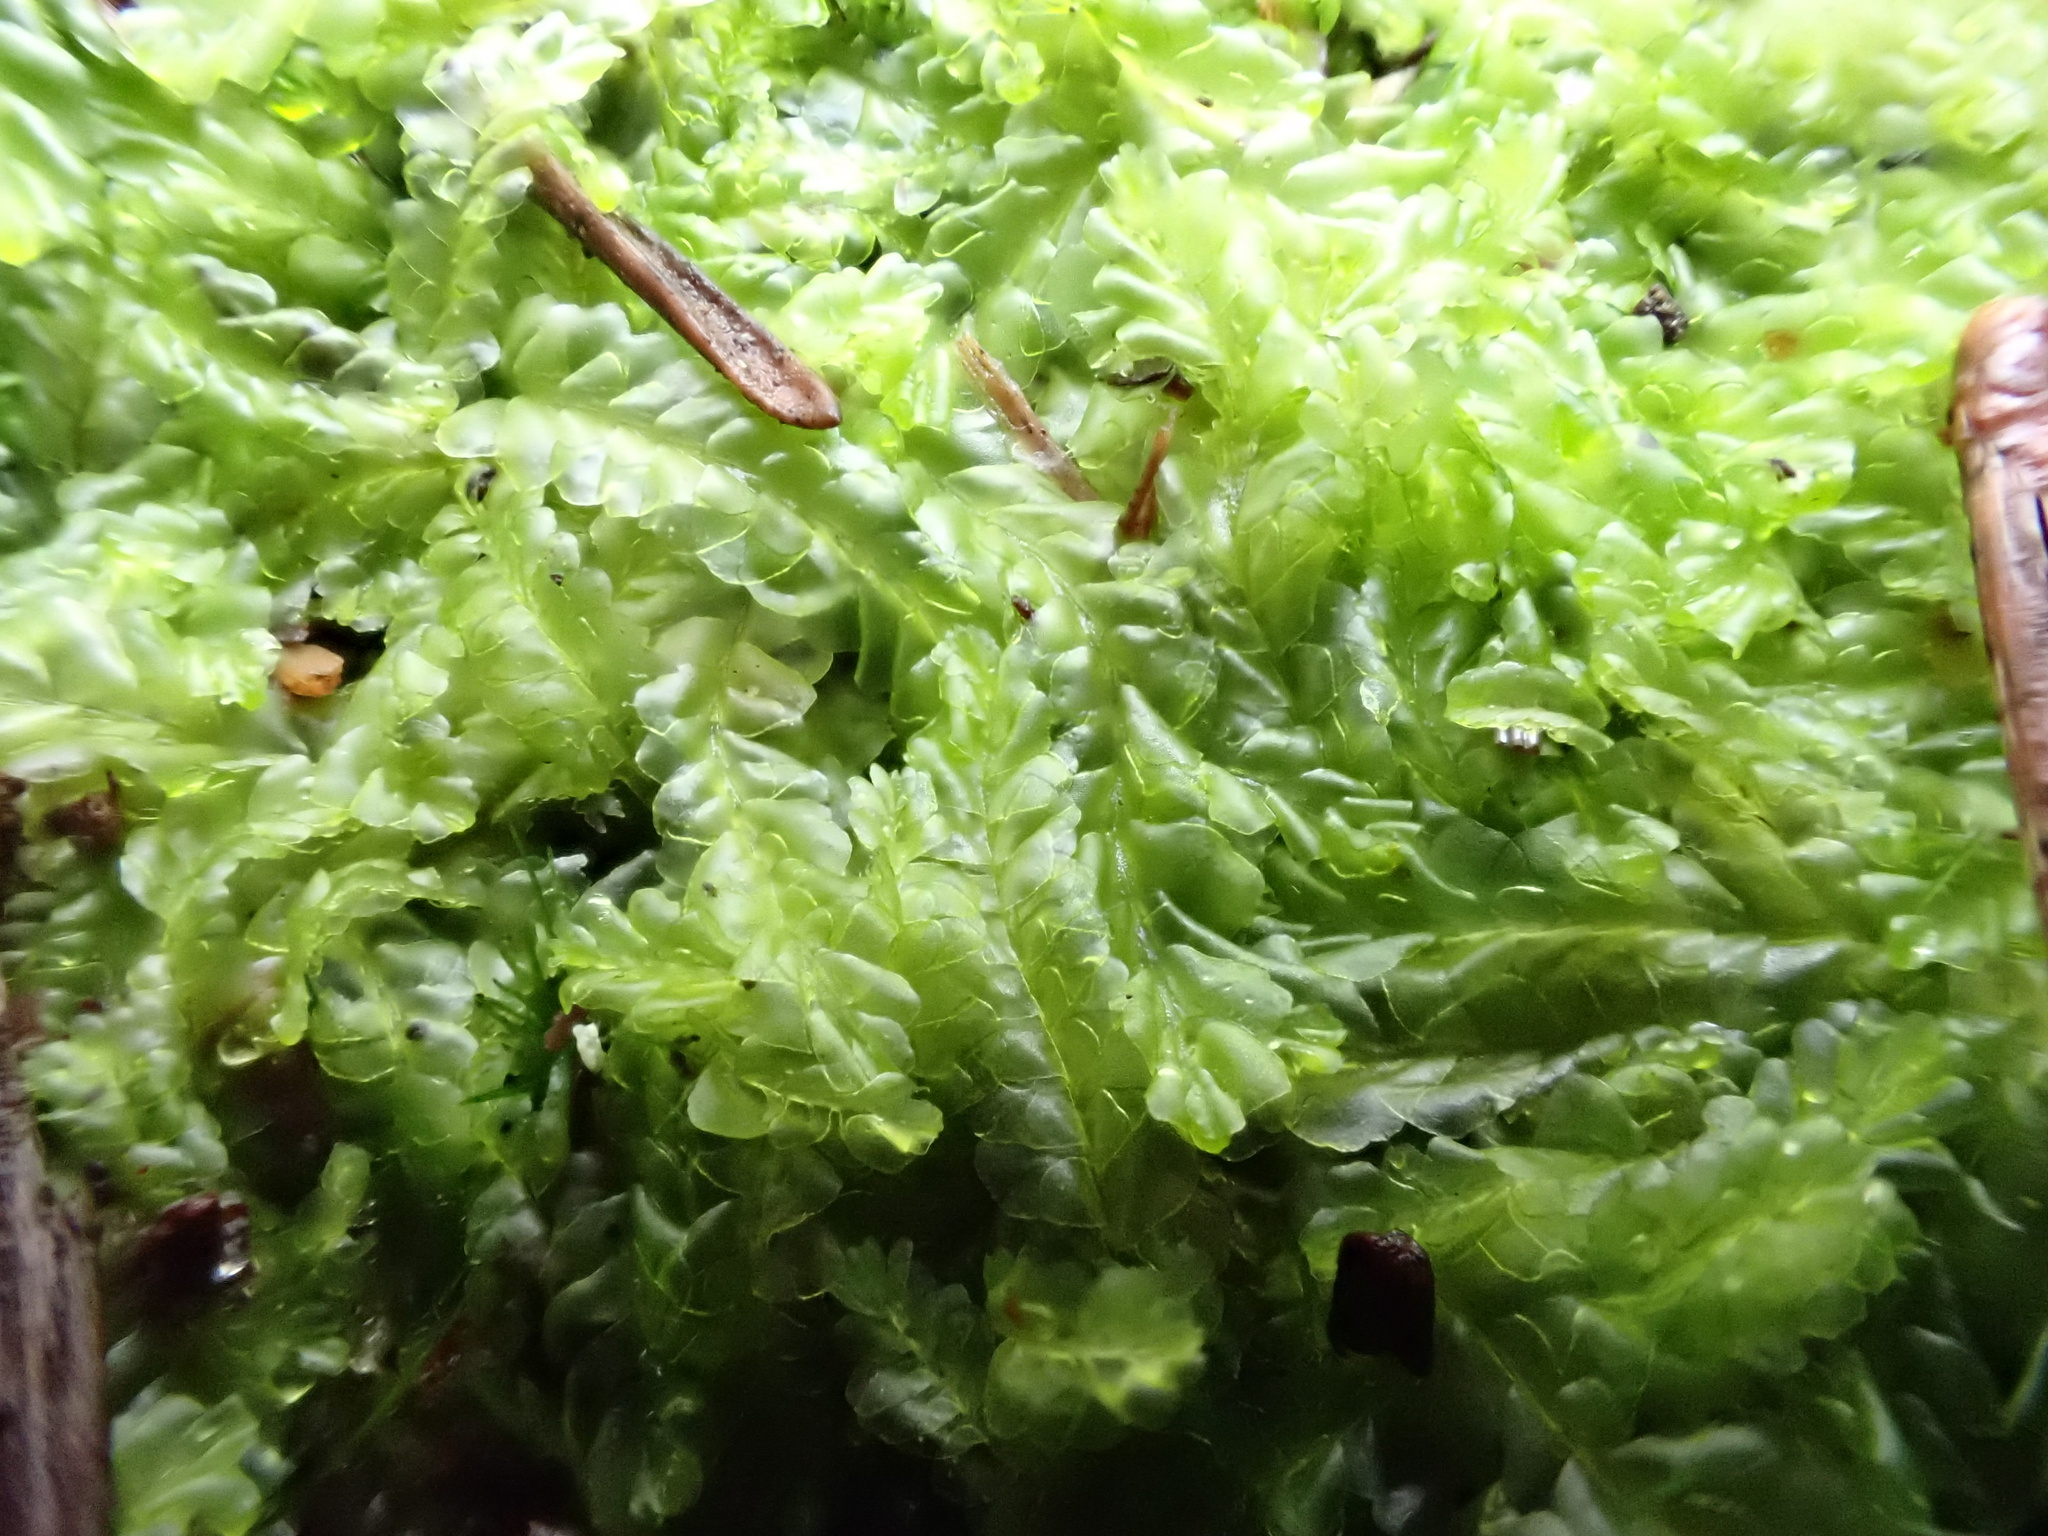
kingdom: Plantae
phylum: Marchantiophyta
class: Jungermanniopsida
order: Jungermanniales
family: Lophocoleaceae
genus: Lophocolea
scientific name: Lophocolea semiteres
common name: Southern crestwort
